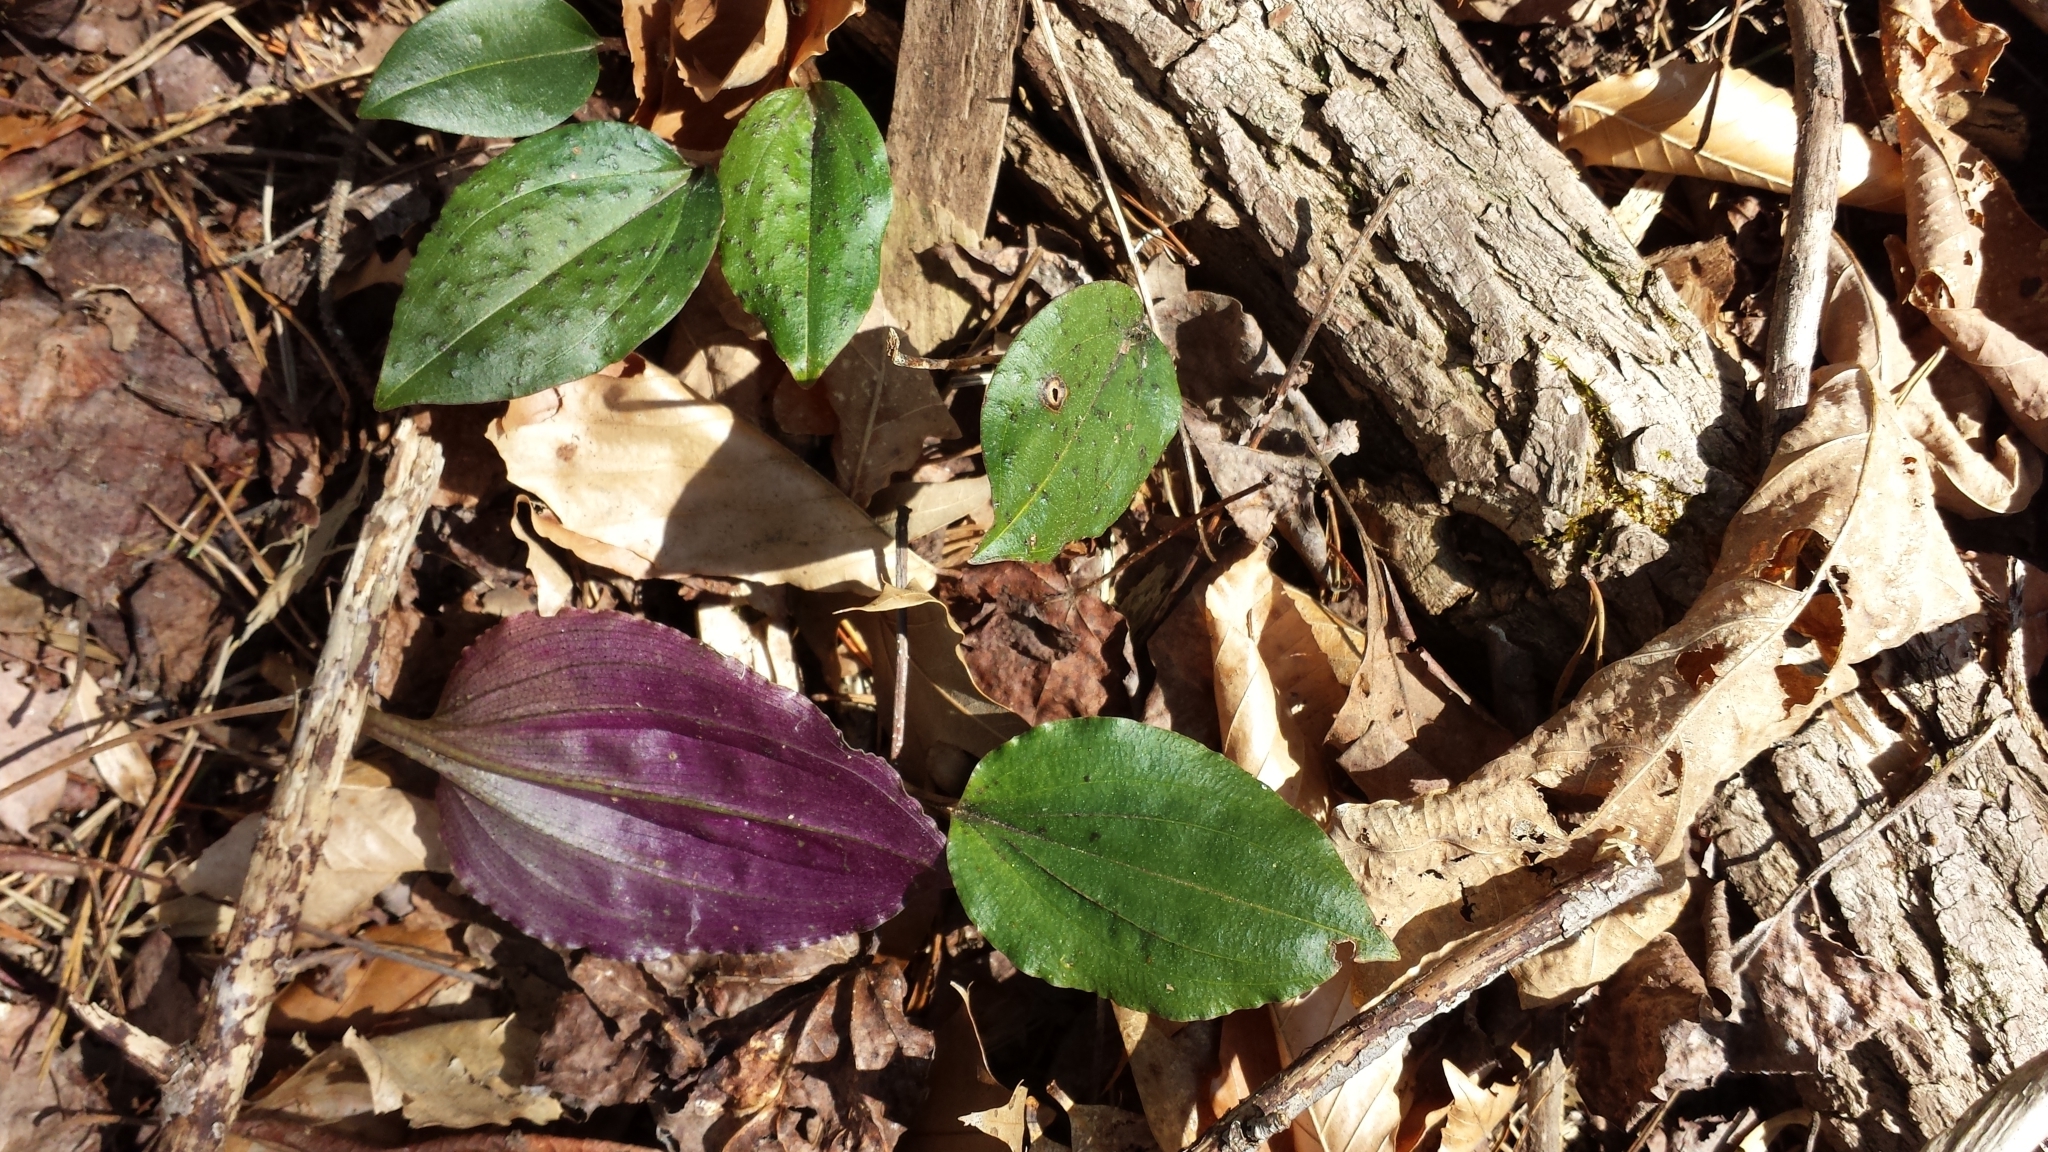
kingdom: Plantae
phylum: Tracheophyta
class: Liliopsida
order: Asparagales
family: Orchidaceae
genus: Tipularia
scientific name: Tipularia discolor
